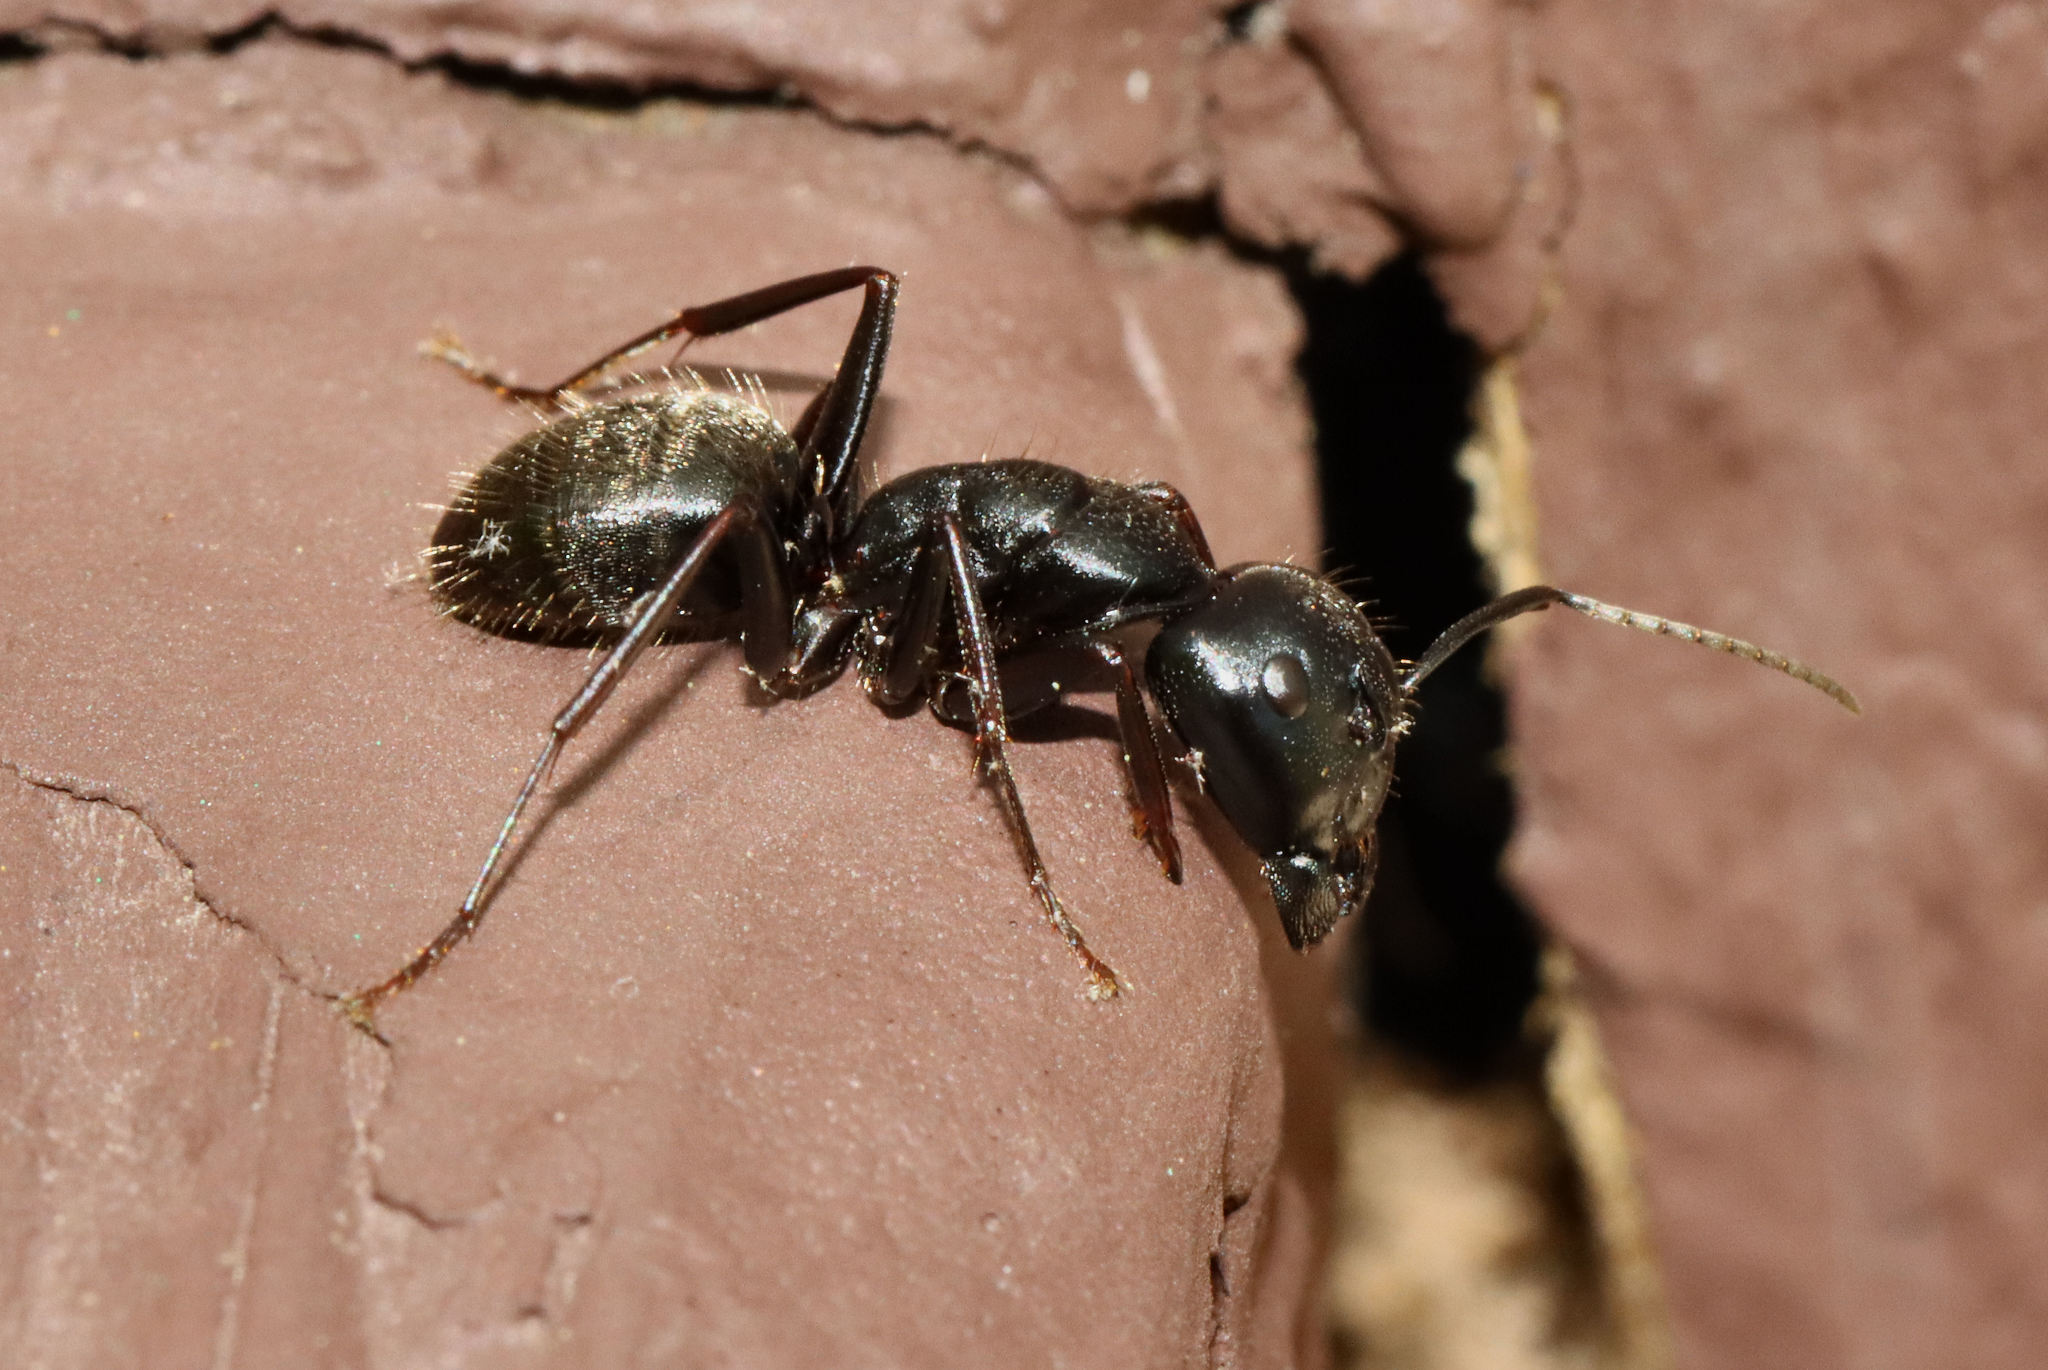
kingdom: Animalia
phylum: Arthropoda
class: Insecta
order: Hymenoptera
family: Formicidae
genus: Camponotus
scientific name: Camponotus pennsylvanicus
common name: Black carpenter ant
